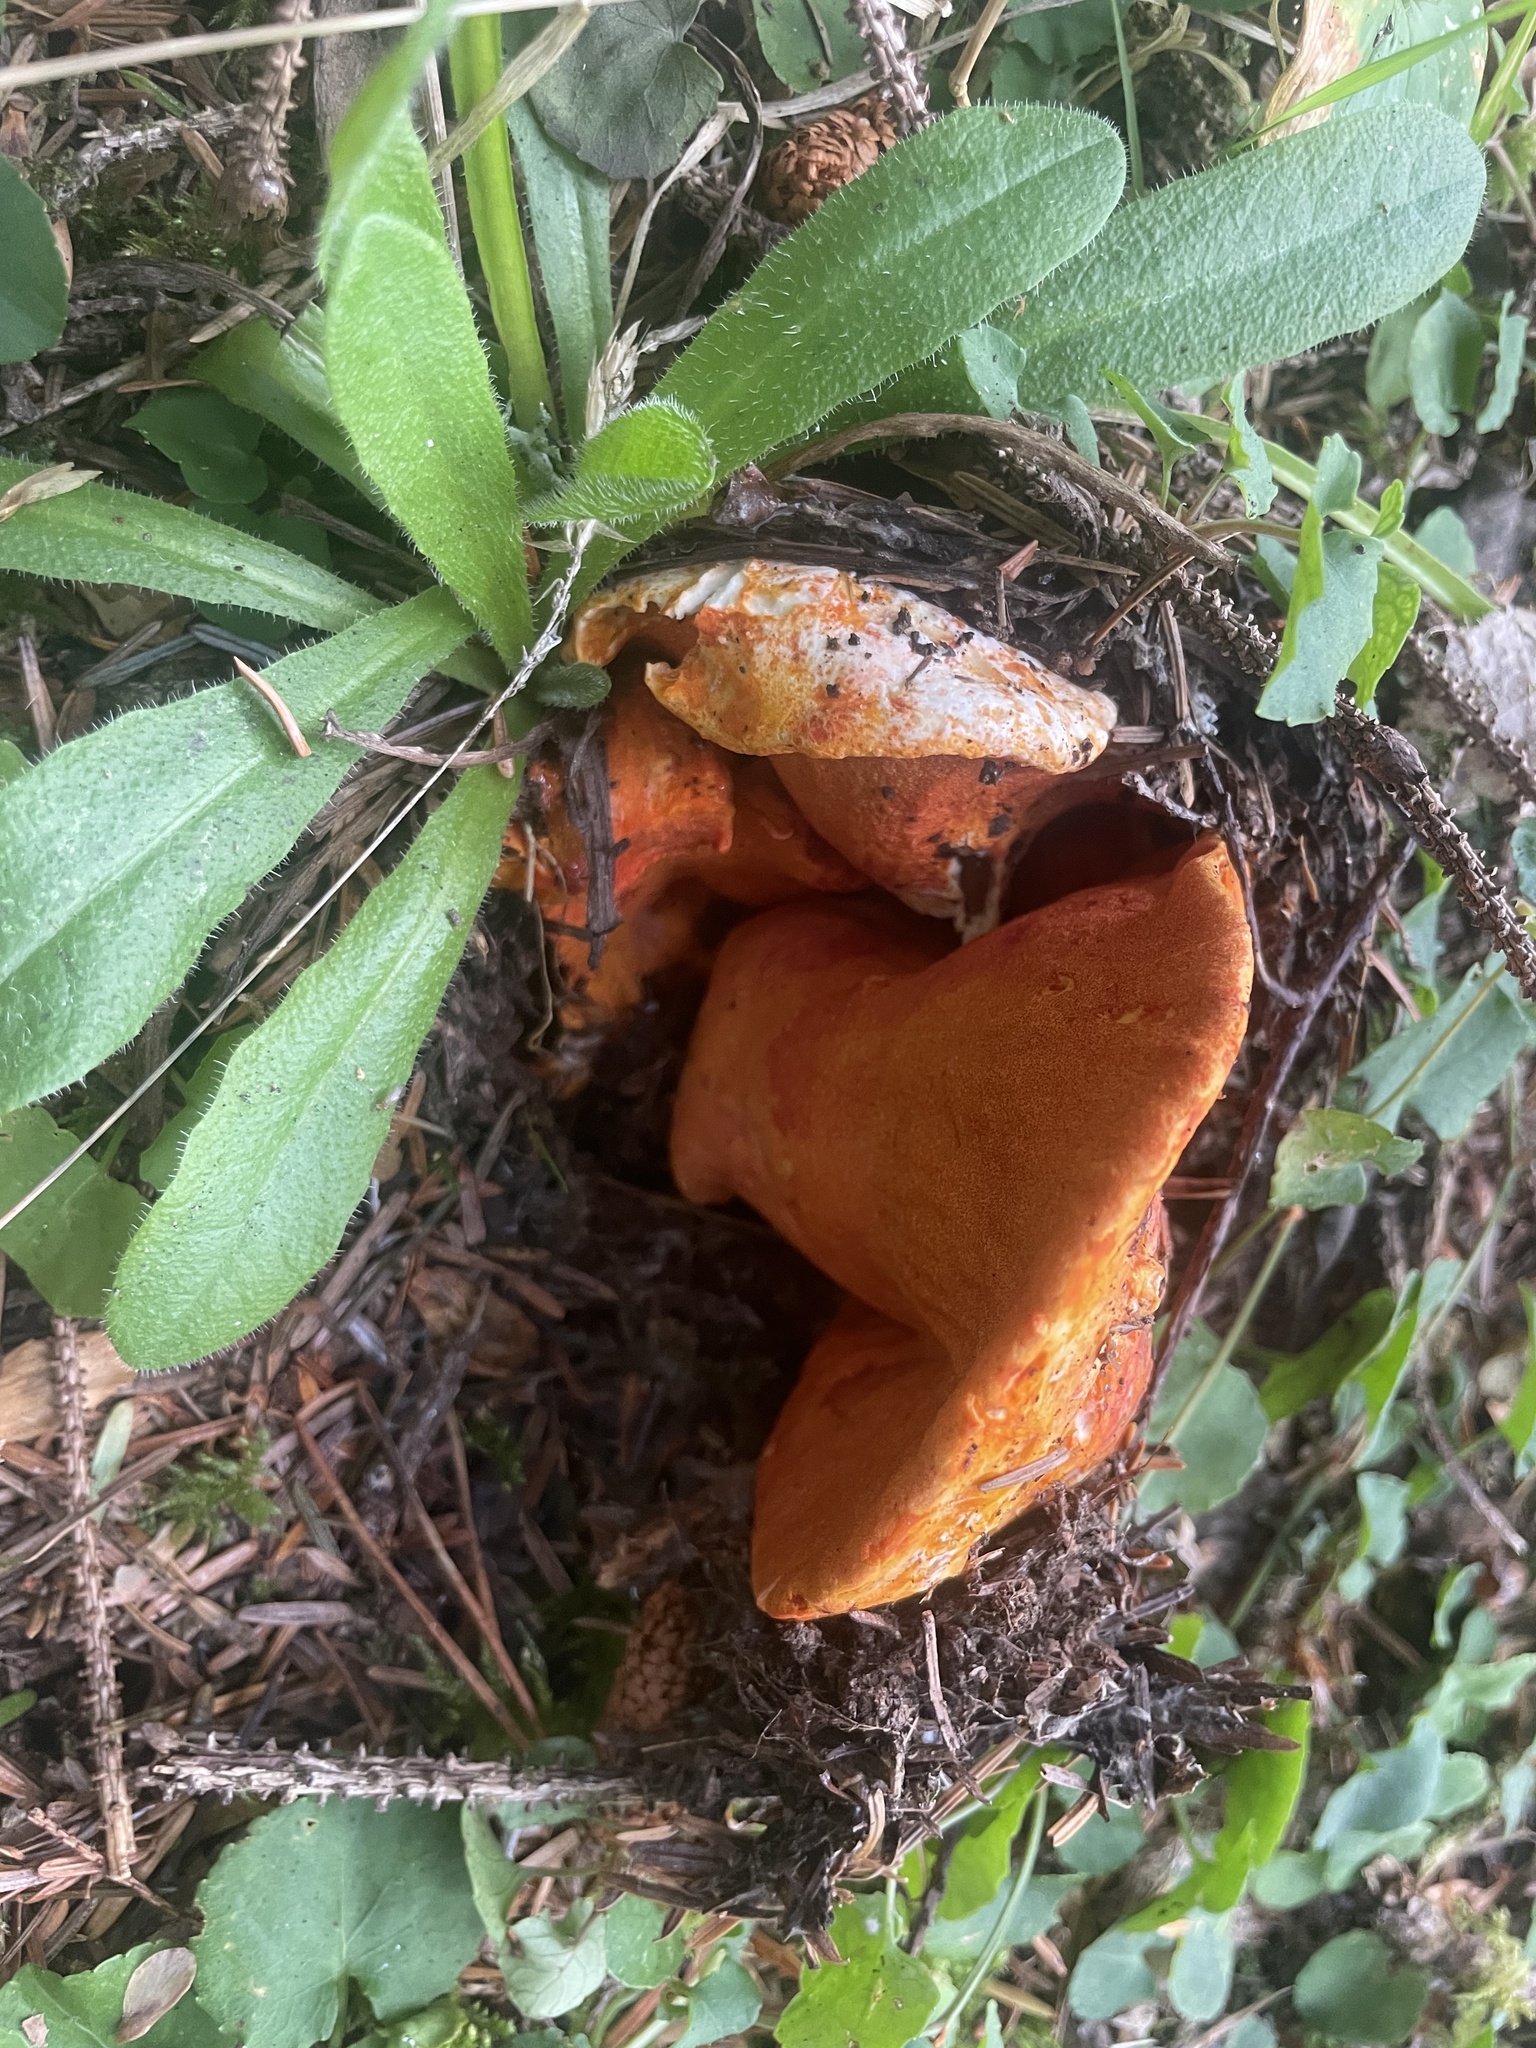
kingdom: Fungi
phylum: Ascomycota
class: Sordariomycetes
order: Hypocreales
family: Hypocreaceae
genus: Hypomyces
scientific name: Hypomyces lactifluorum
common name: Lobster mushroom
